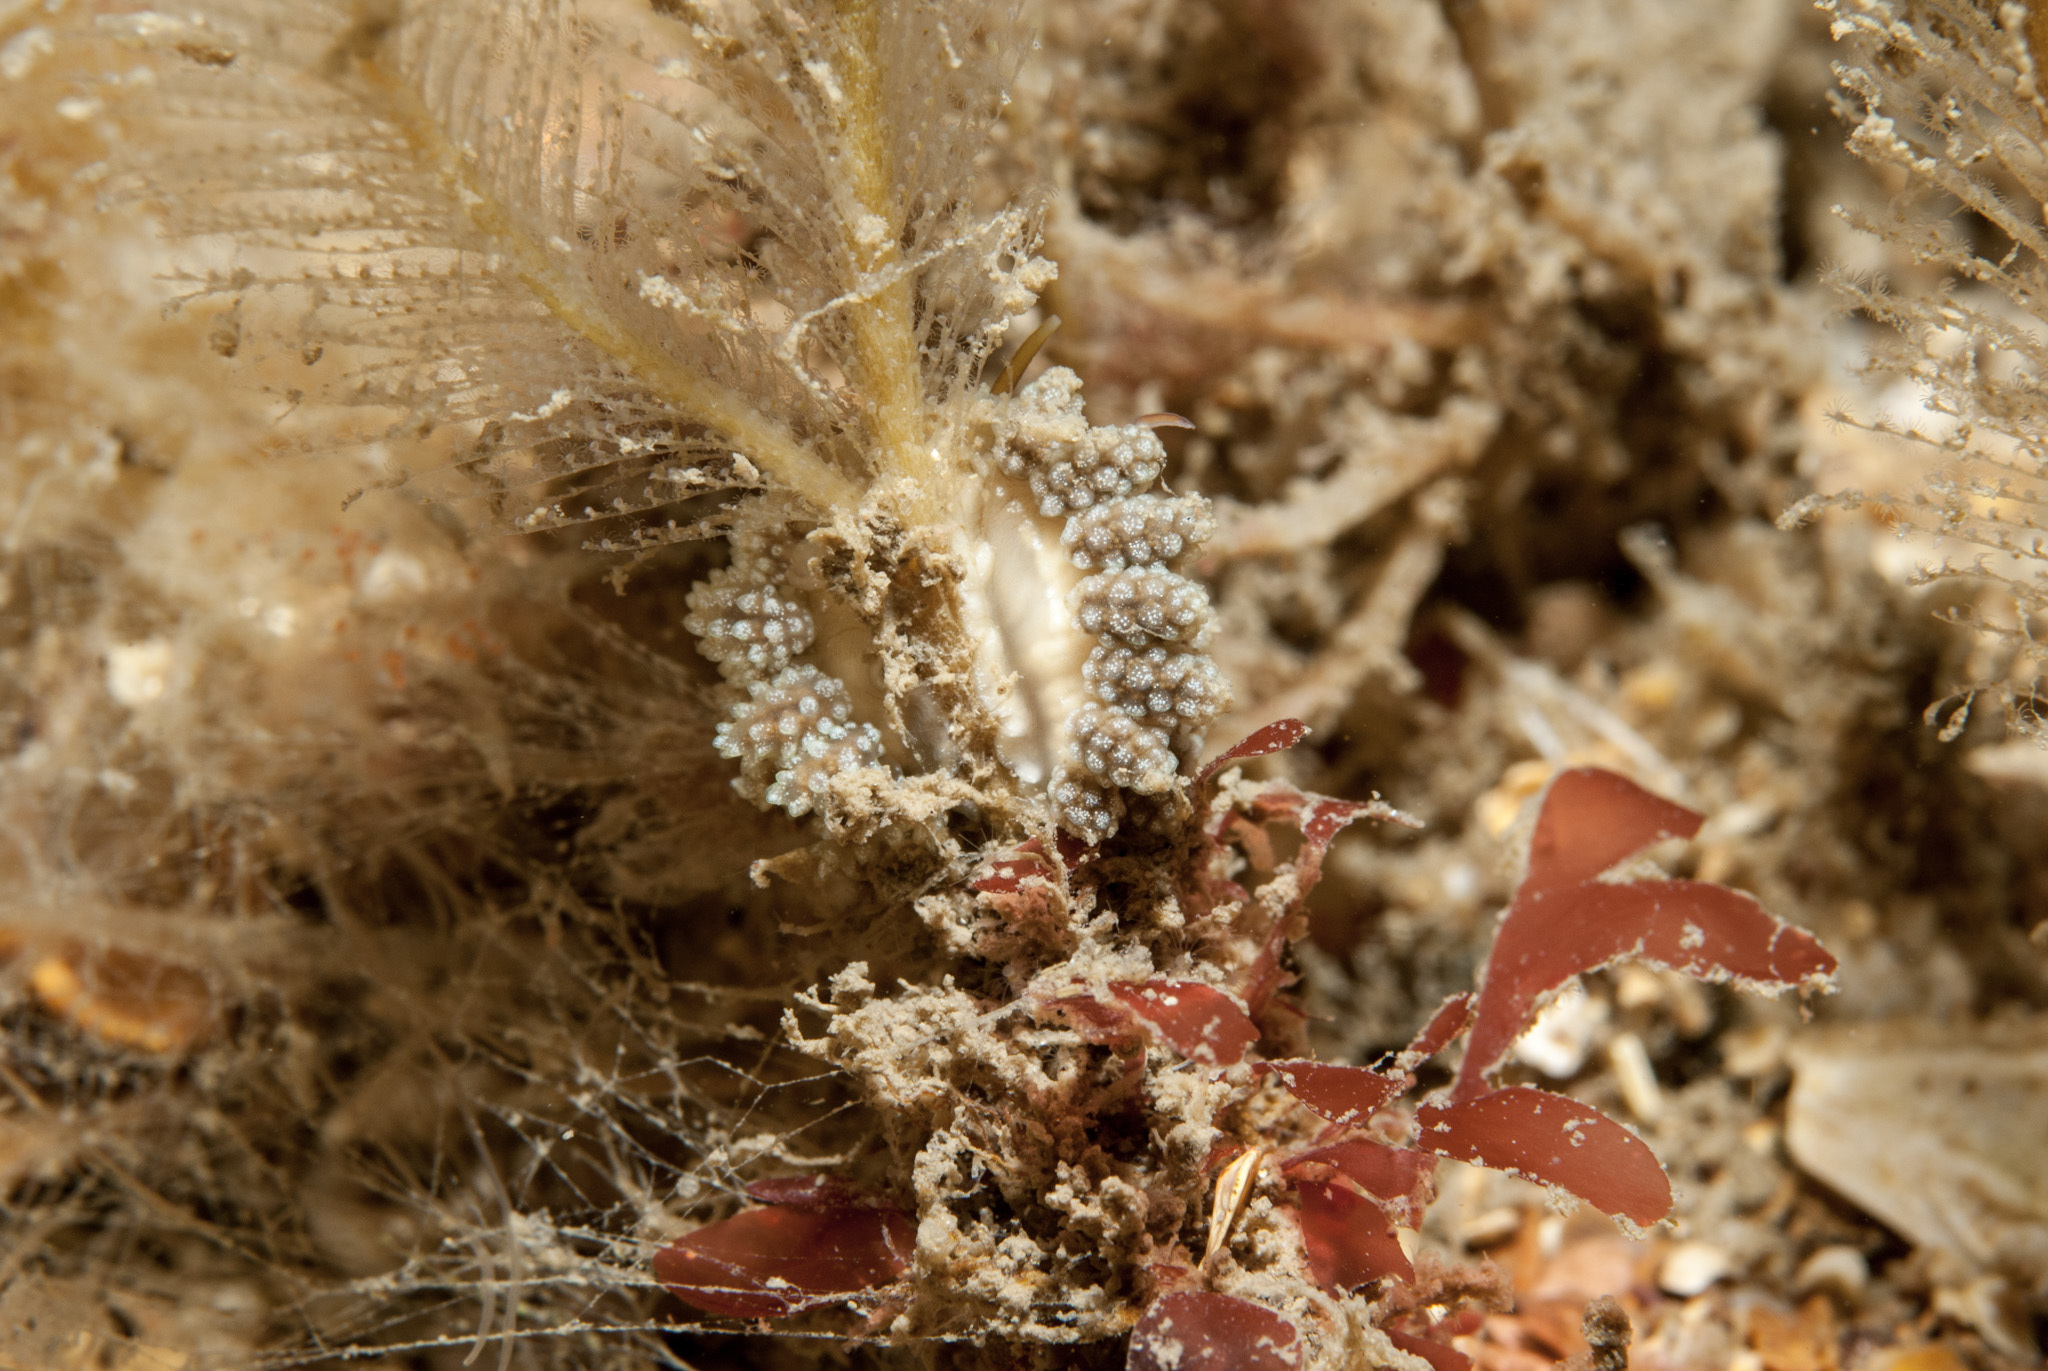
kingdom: Animalia
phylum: Mollusca
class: Gastropoda
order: Nudibranchia
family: Dotidae
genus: Doto
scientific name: Doto fragilis
